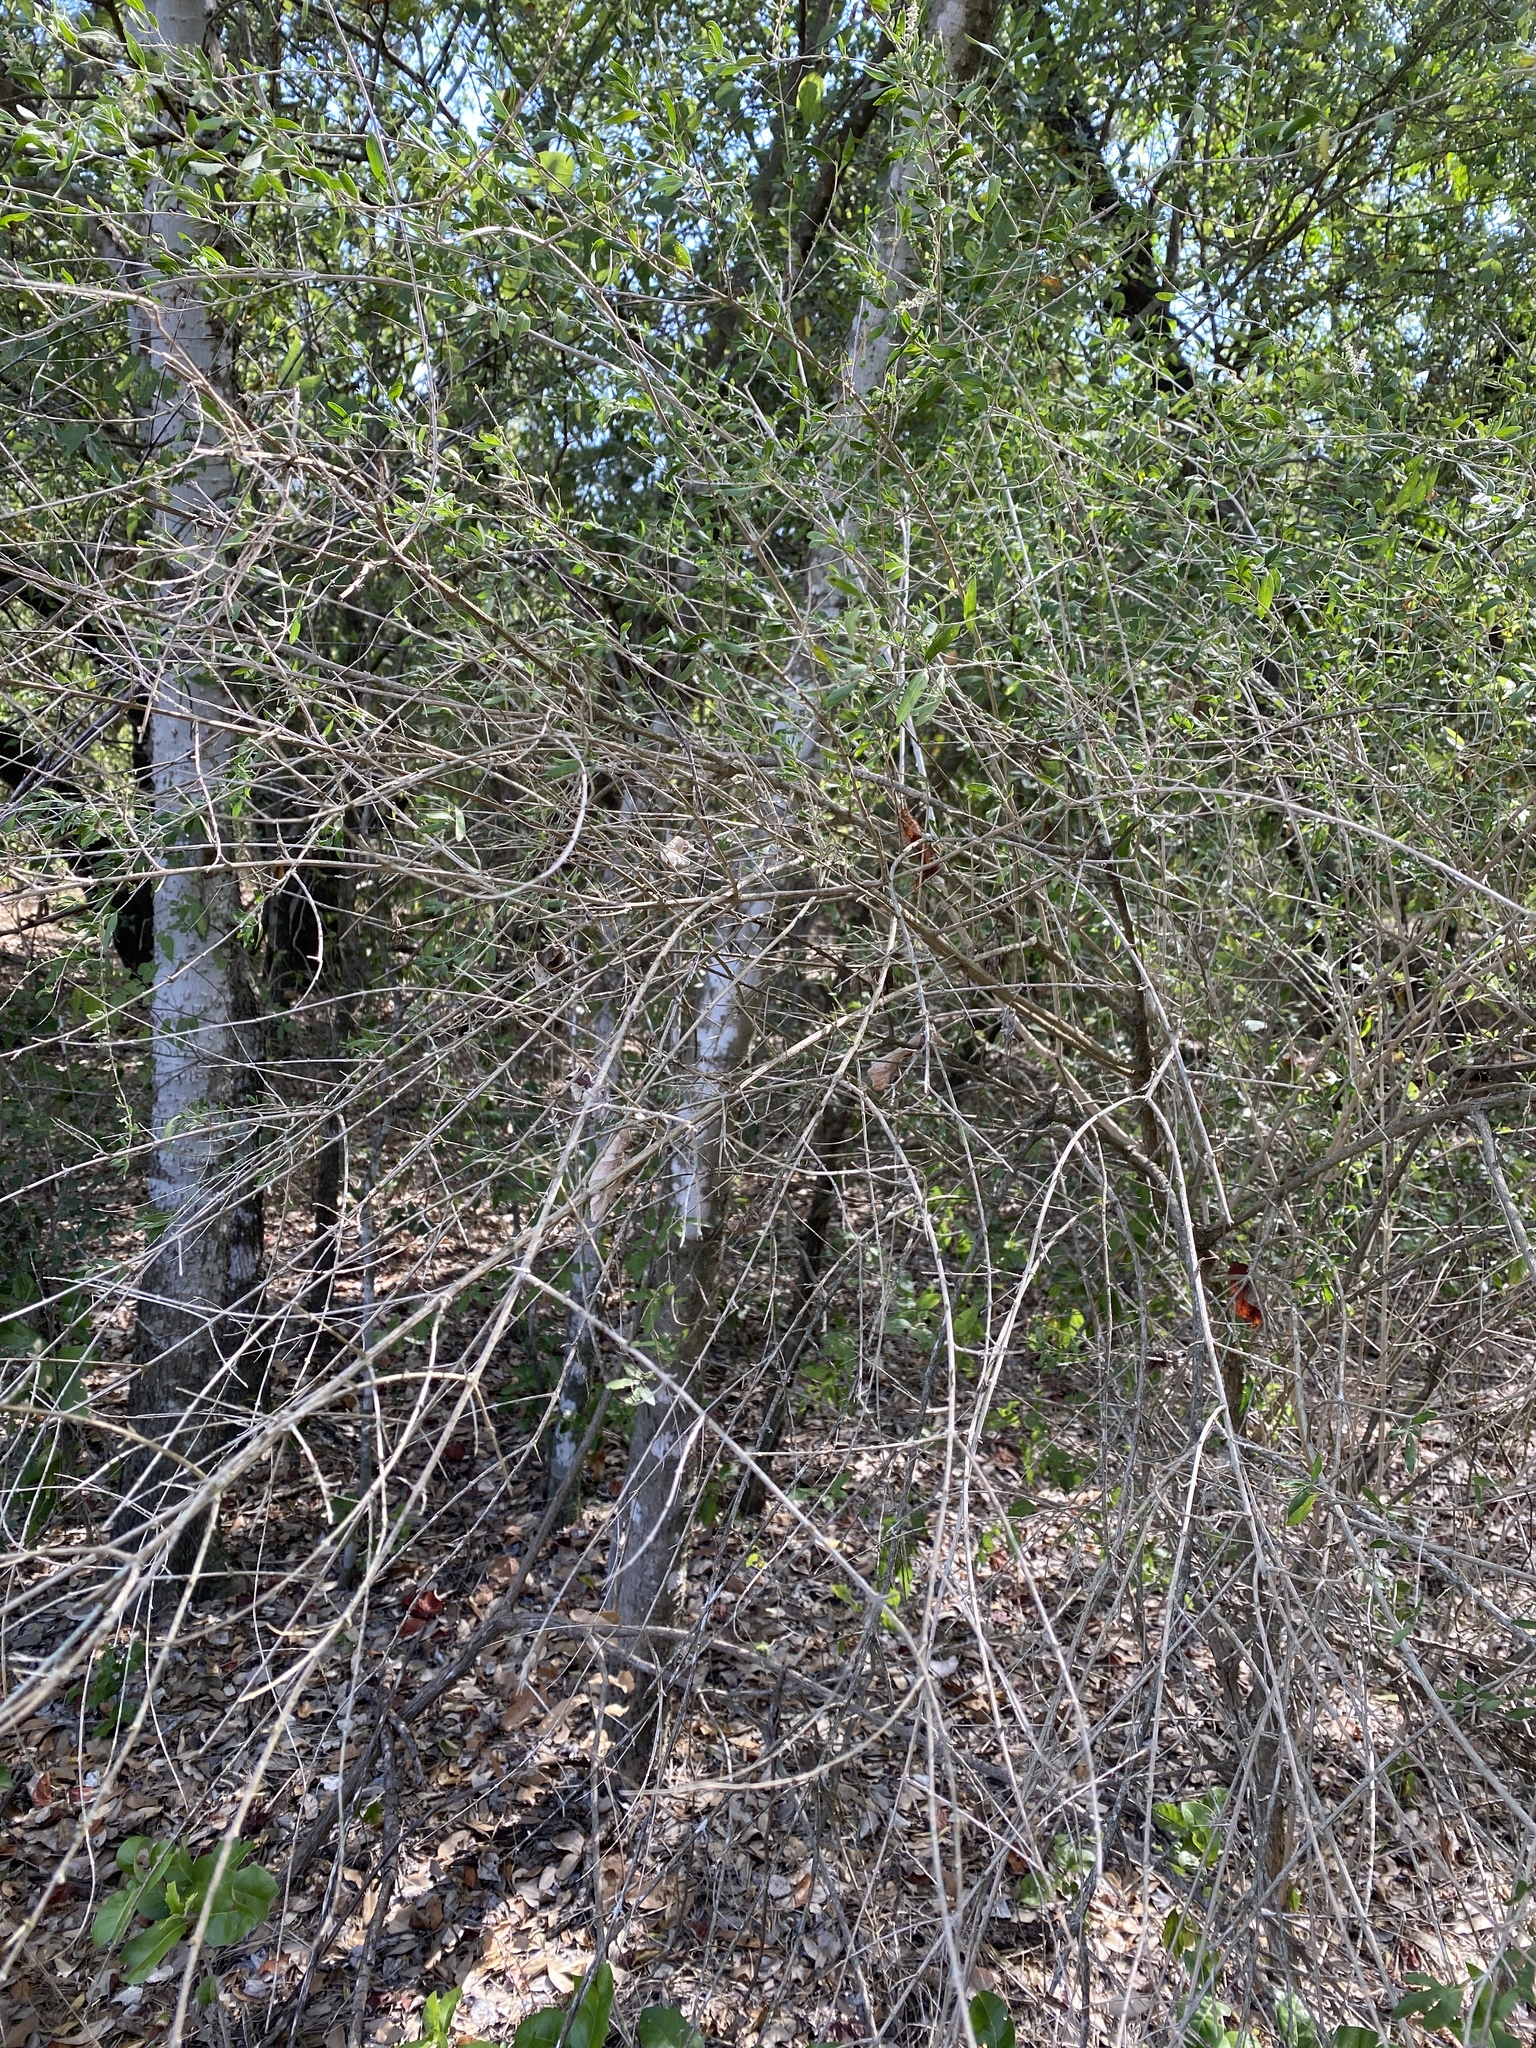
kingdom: Plantae
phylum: Tracheophyta
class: Magnoliopsida
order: Lamiales
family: Verbenaceae
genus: Aloysia
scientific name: Aloysia gratissima
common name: Common bee-brush
